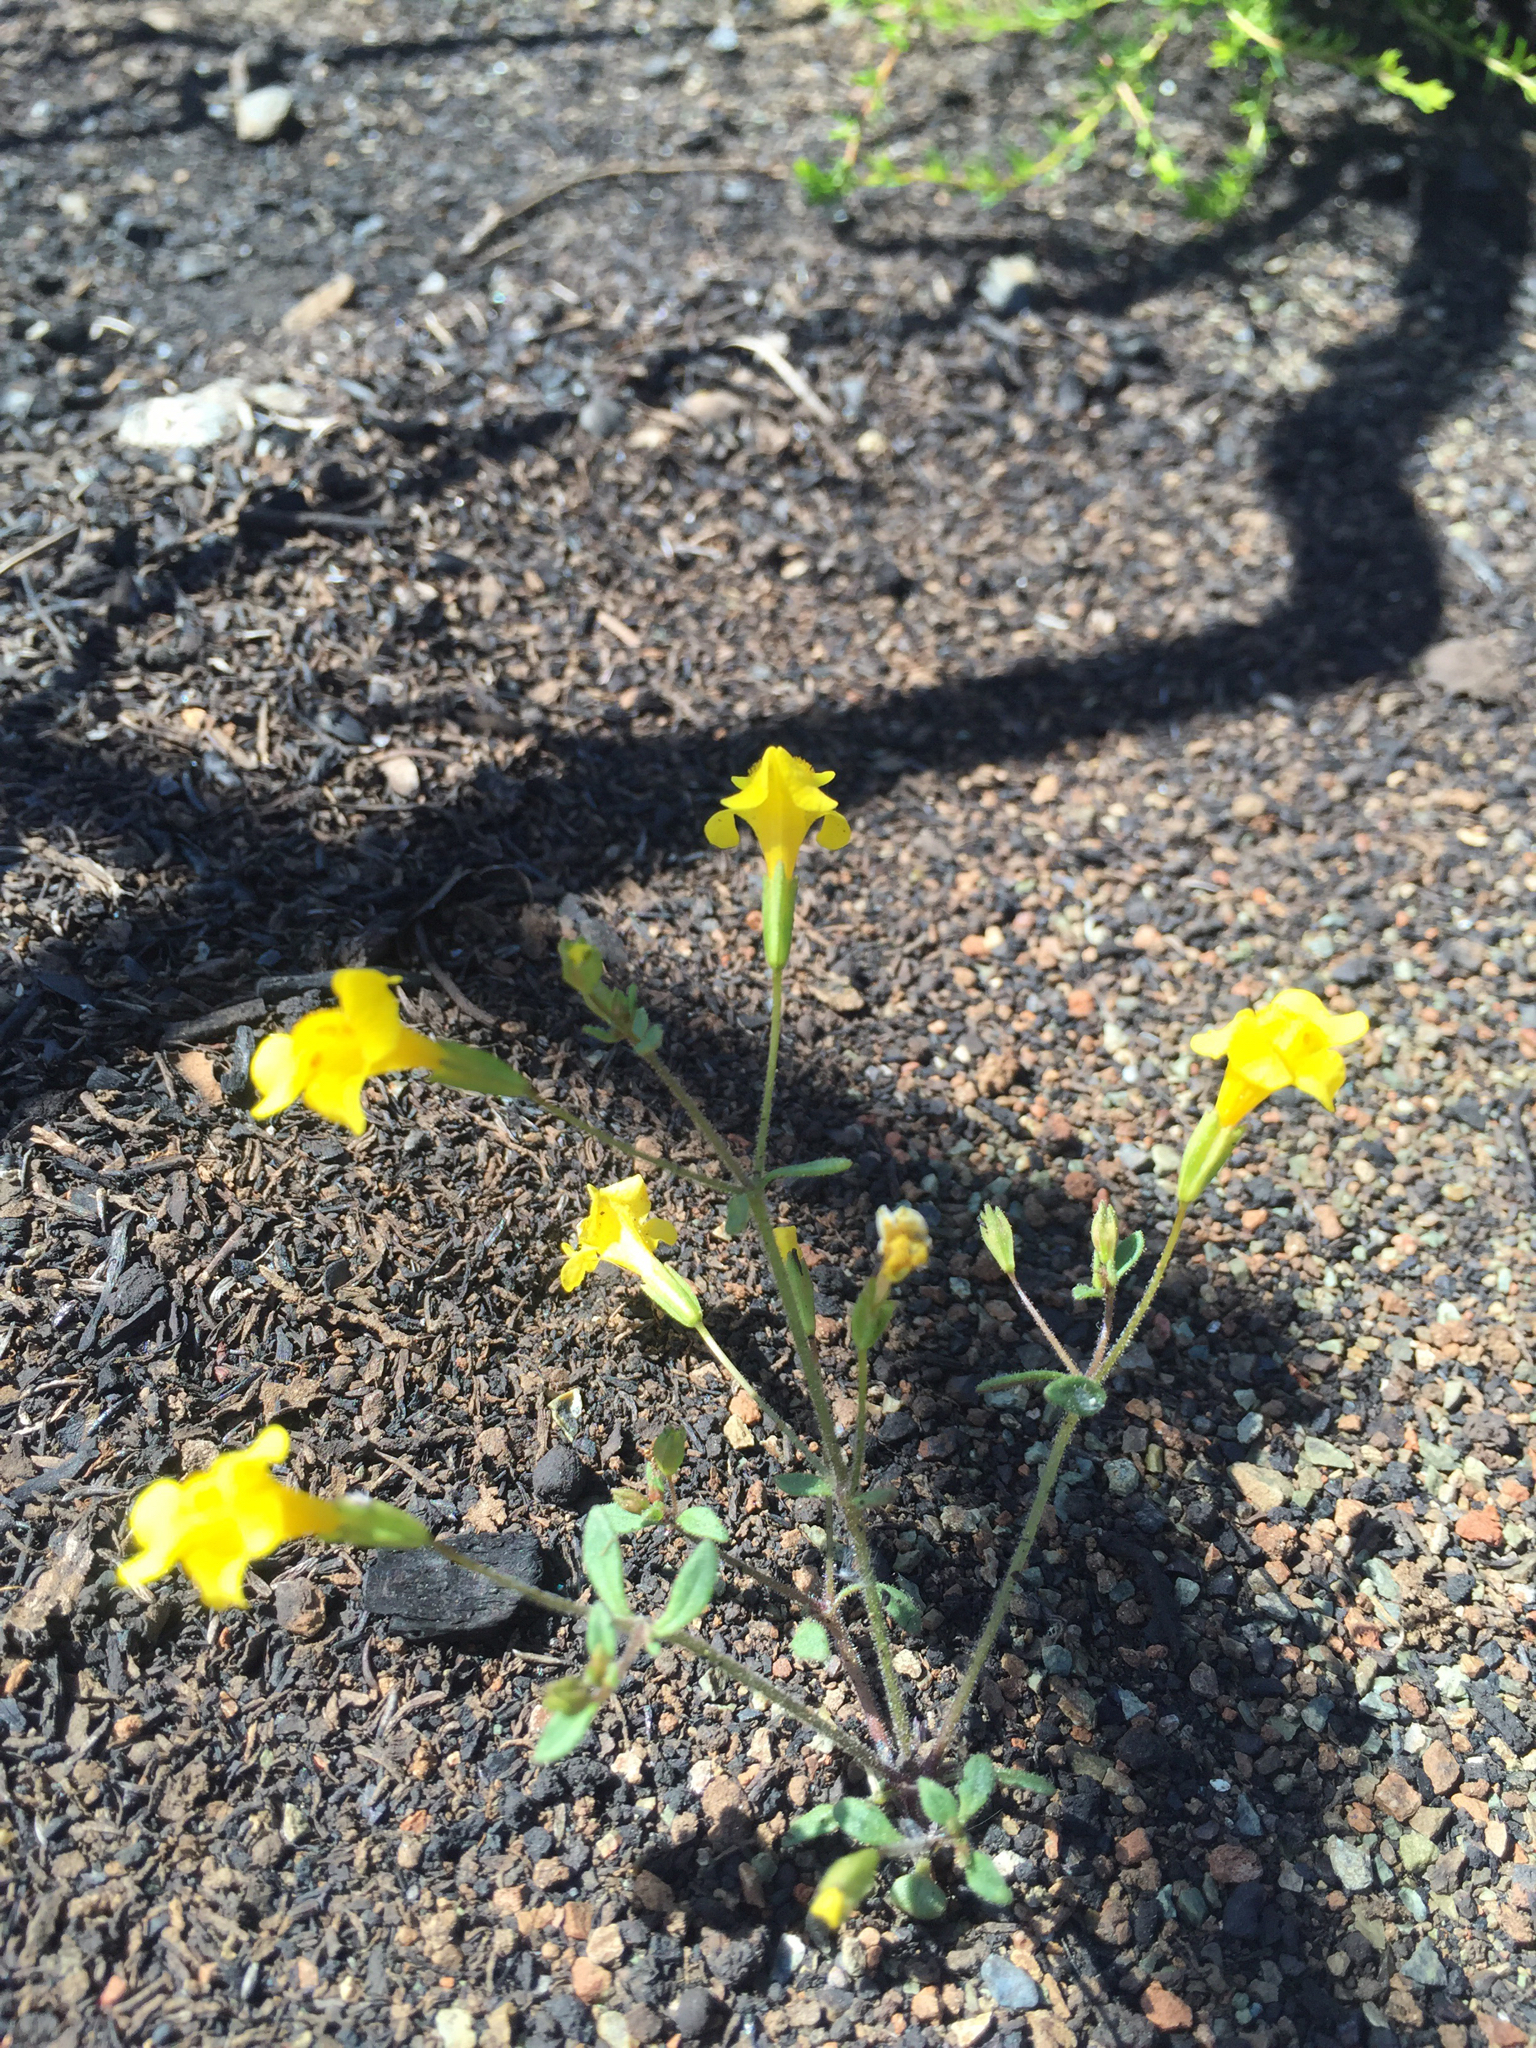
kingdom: Plantae
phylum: Tracheophyta
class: Magnoliopsida
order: Lamiales
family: Phrymaceae
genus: Erythranthe
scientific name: Erythranthe nudata
